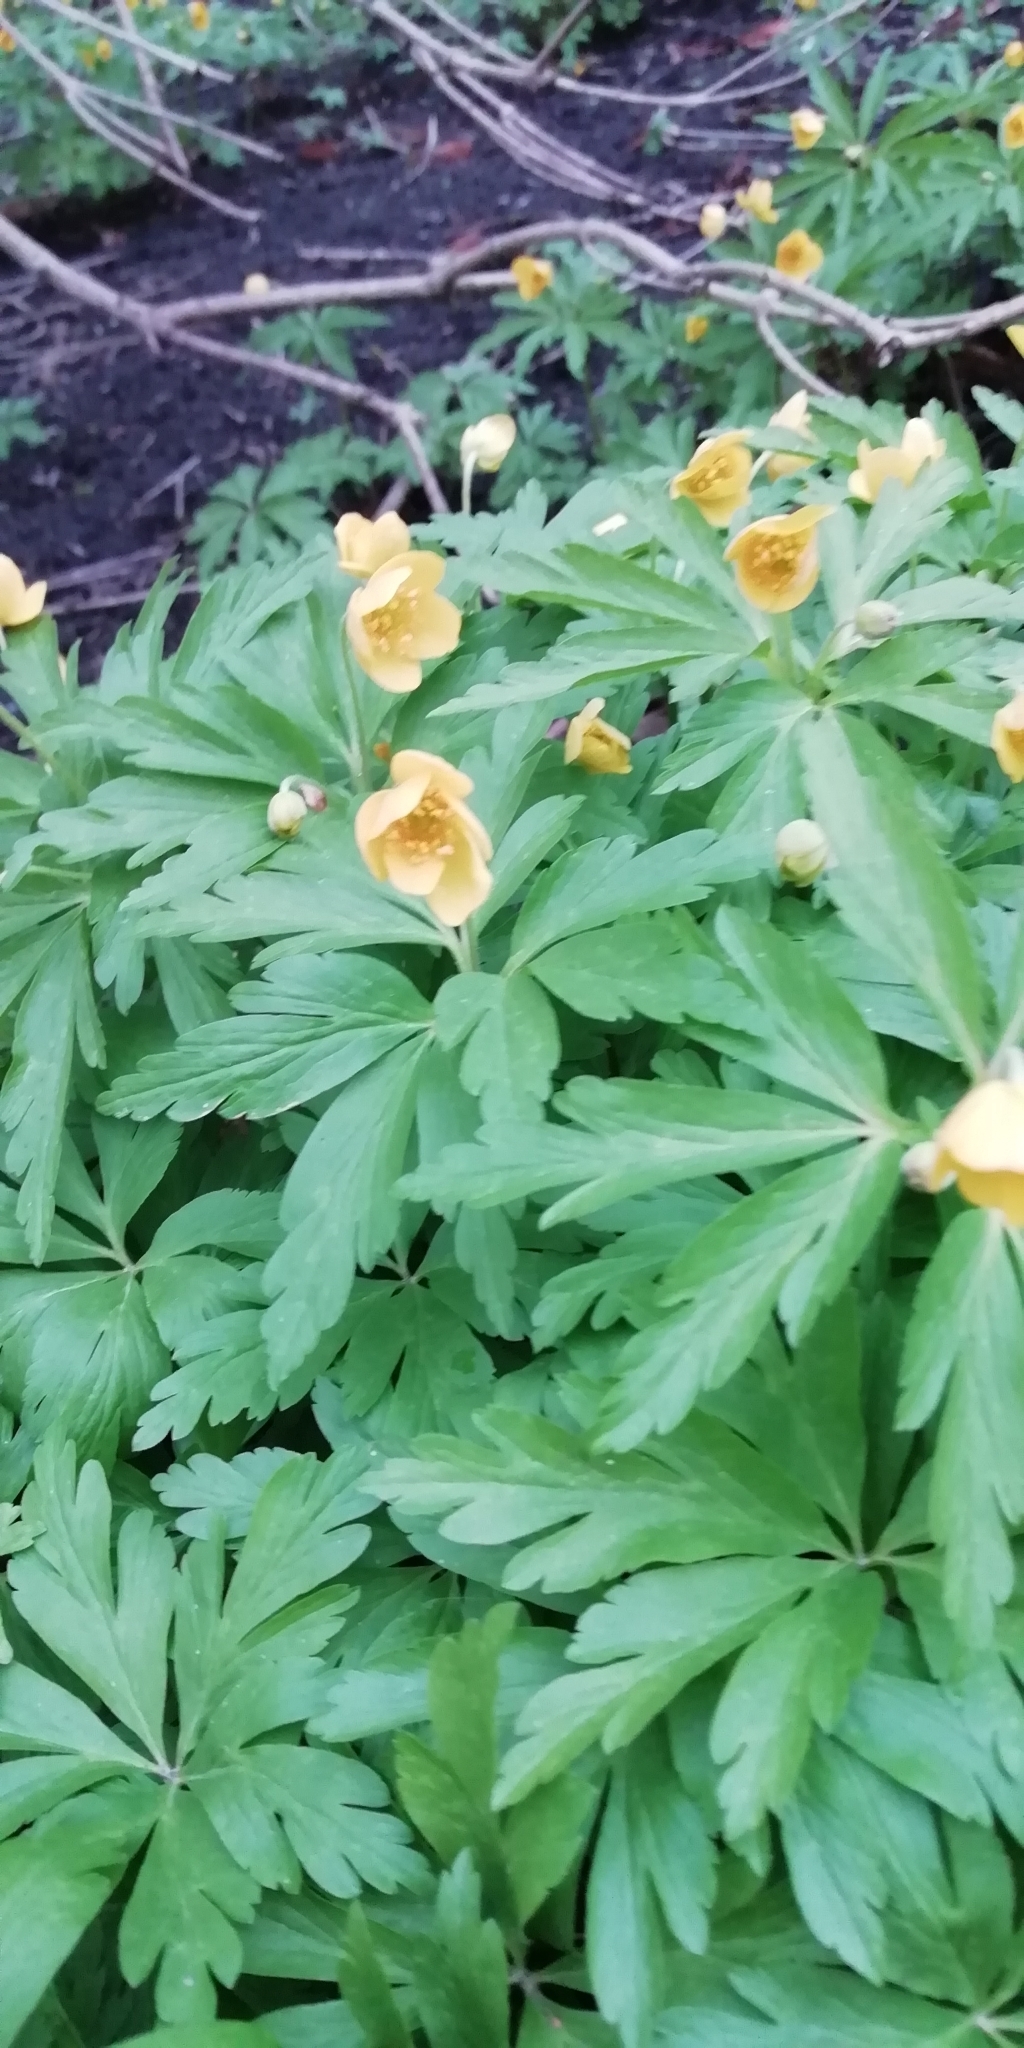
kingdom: Plantae
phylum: Tracheophyta
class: Magnoliopsida
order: Ranunculales
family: Ranunculaceae
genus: Anemone
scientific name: Anemone lipsiensis
